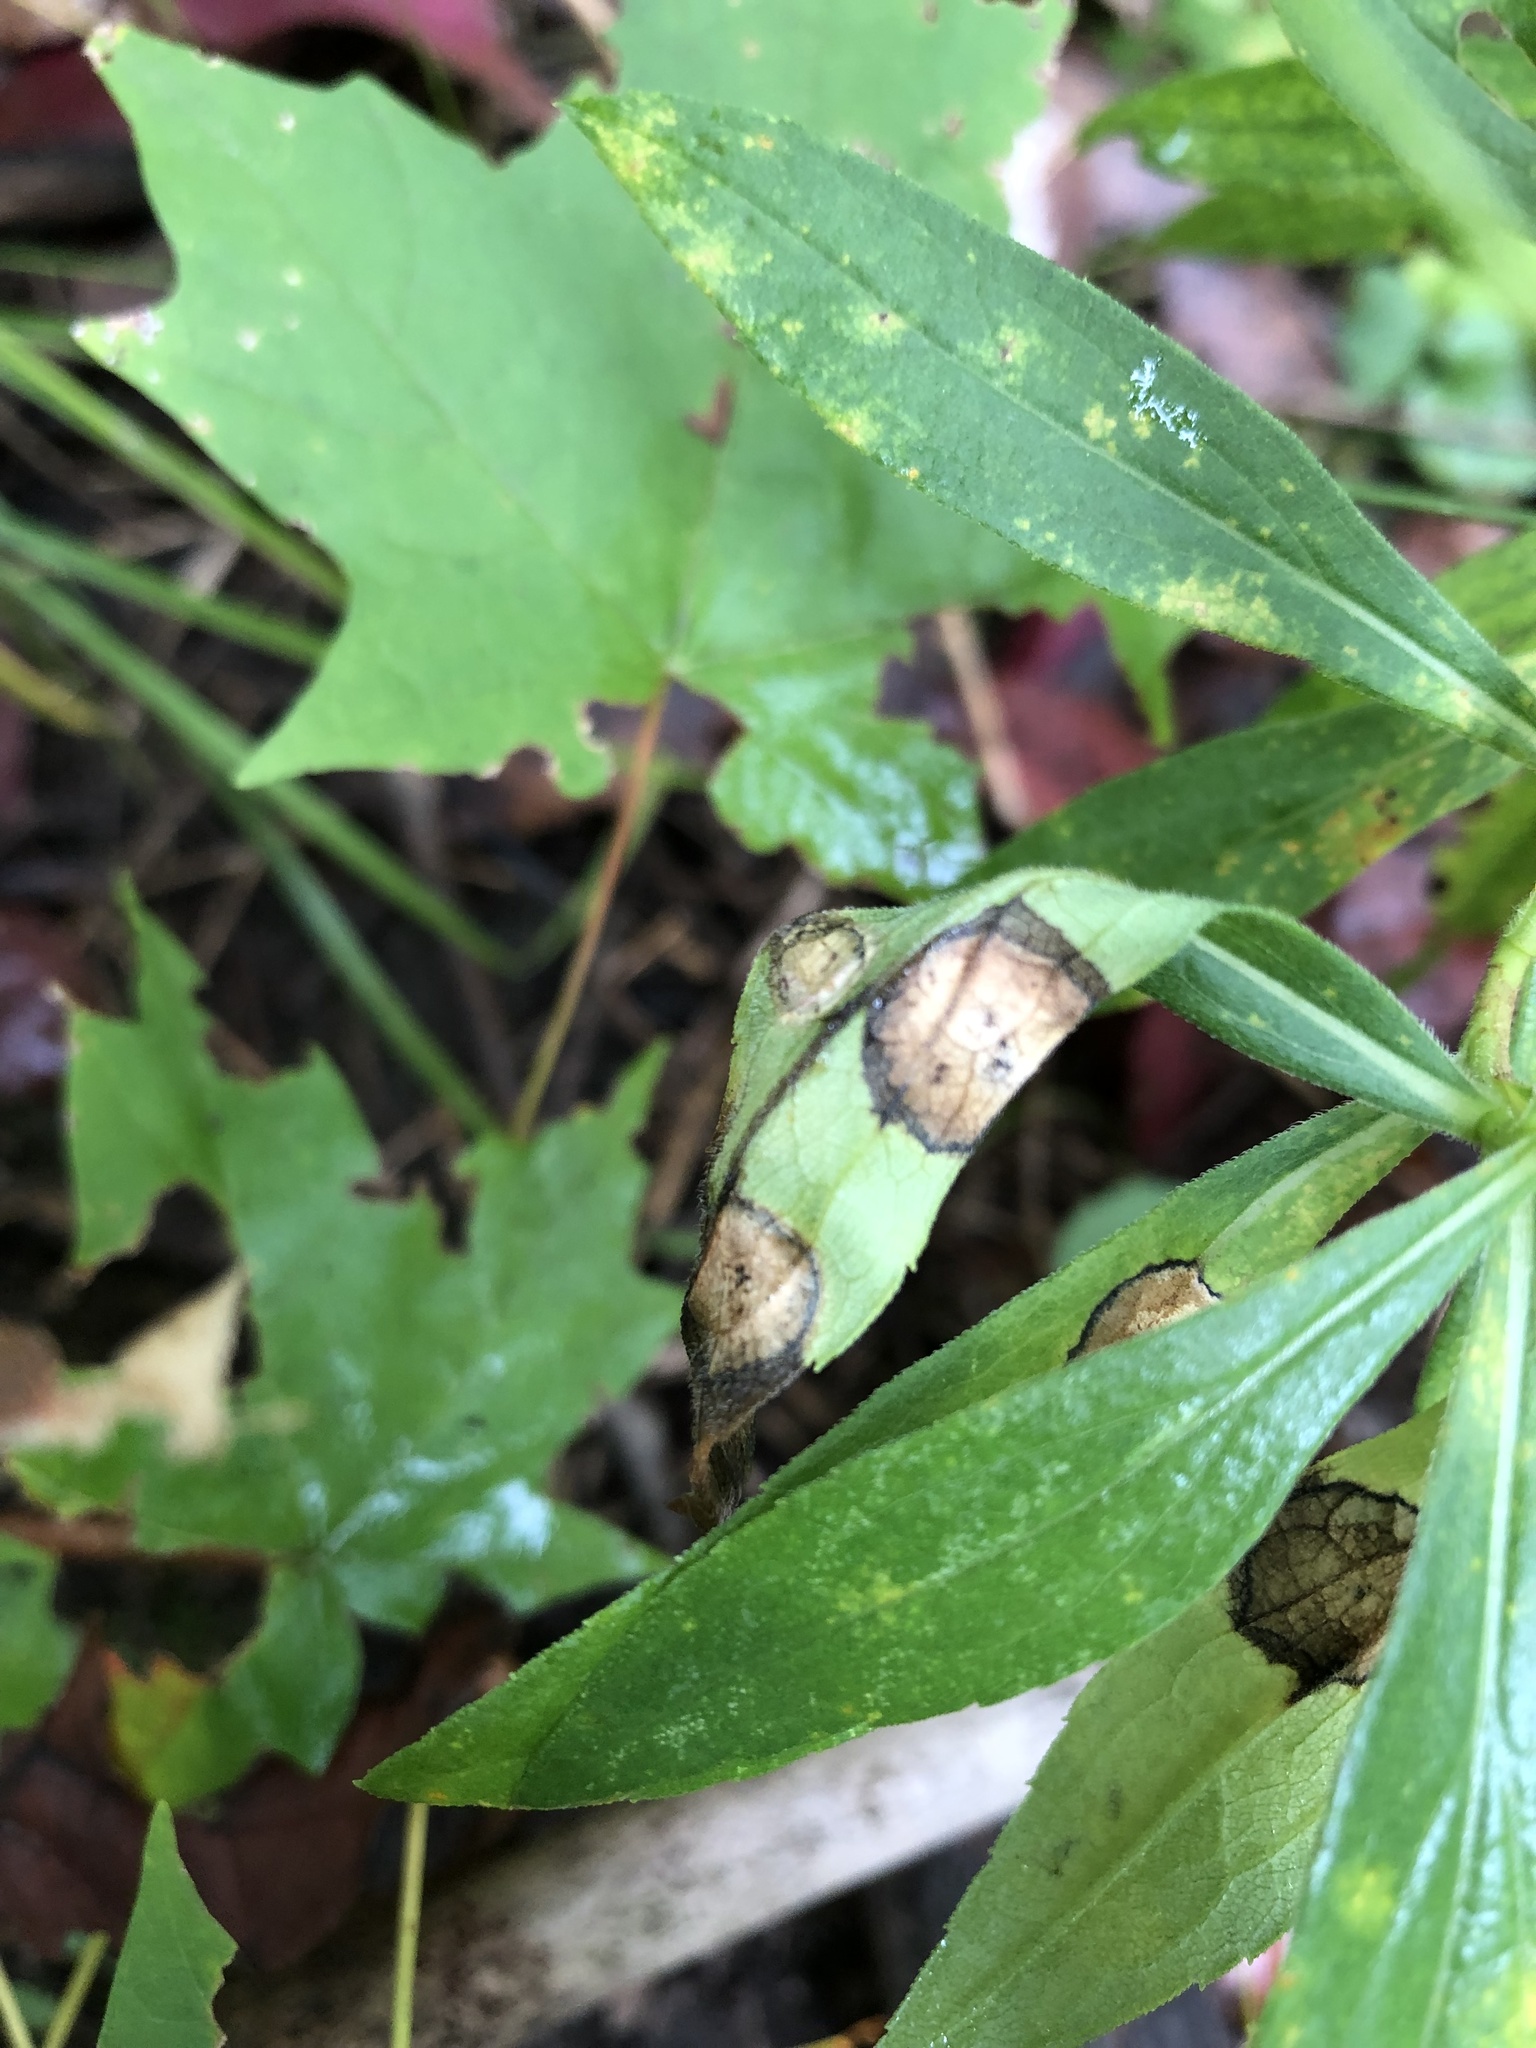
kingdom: Animalia
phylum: Arthropoda
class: Insecta
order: Diptera
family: Cecidomyiidae
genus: Asteromyia
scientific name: Asteromyia carbonifera
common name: Carbonifera goldenrod gall midge
